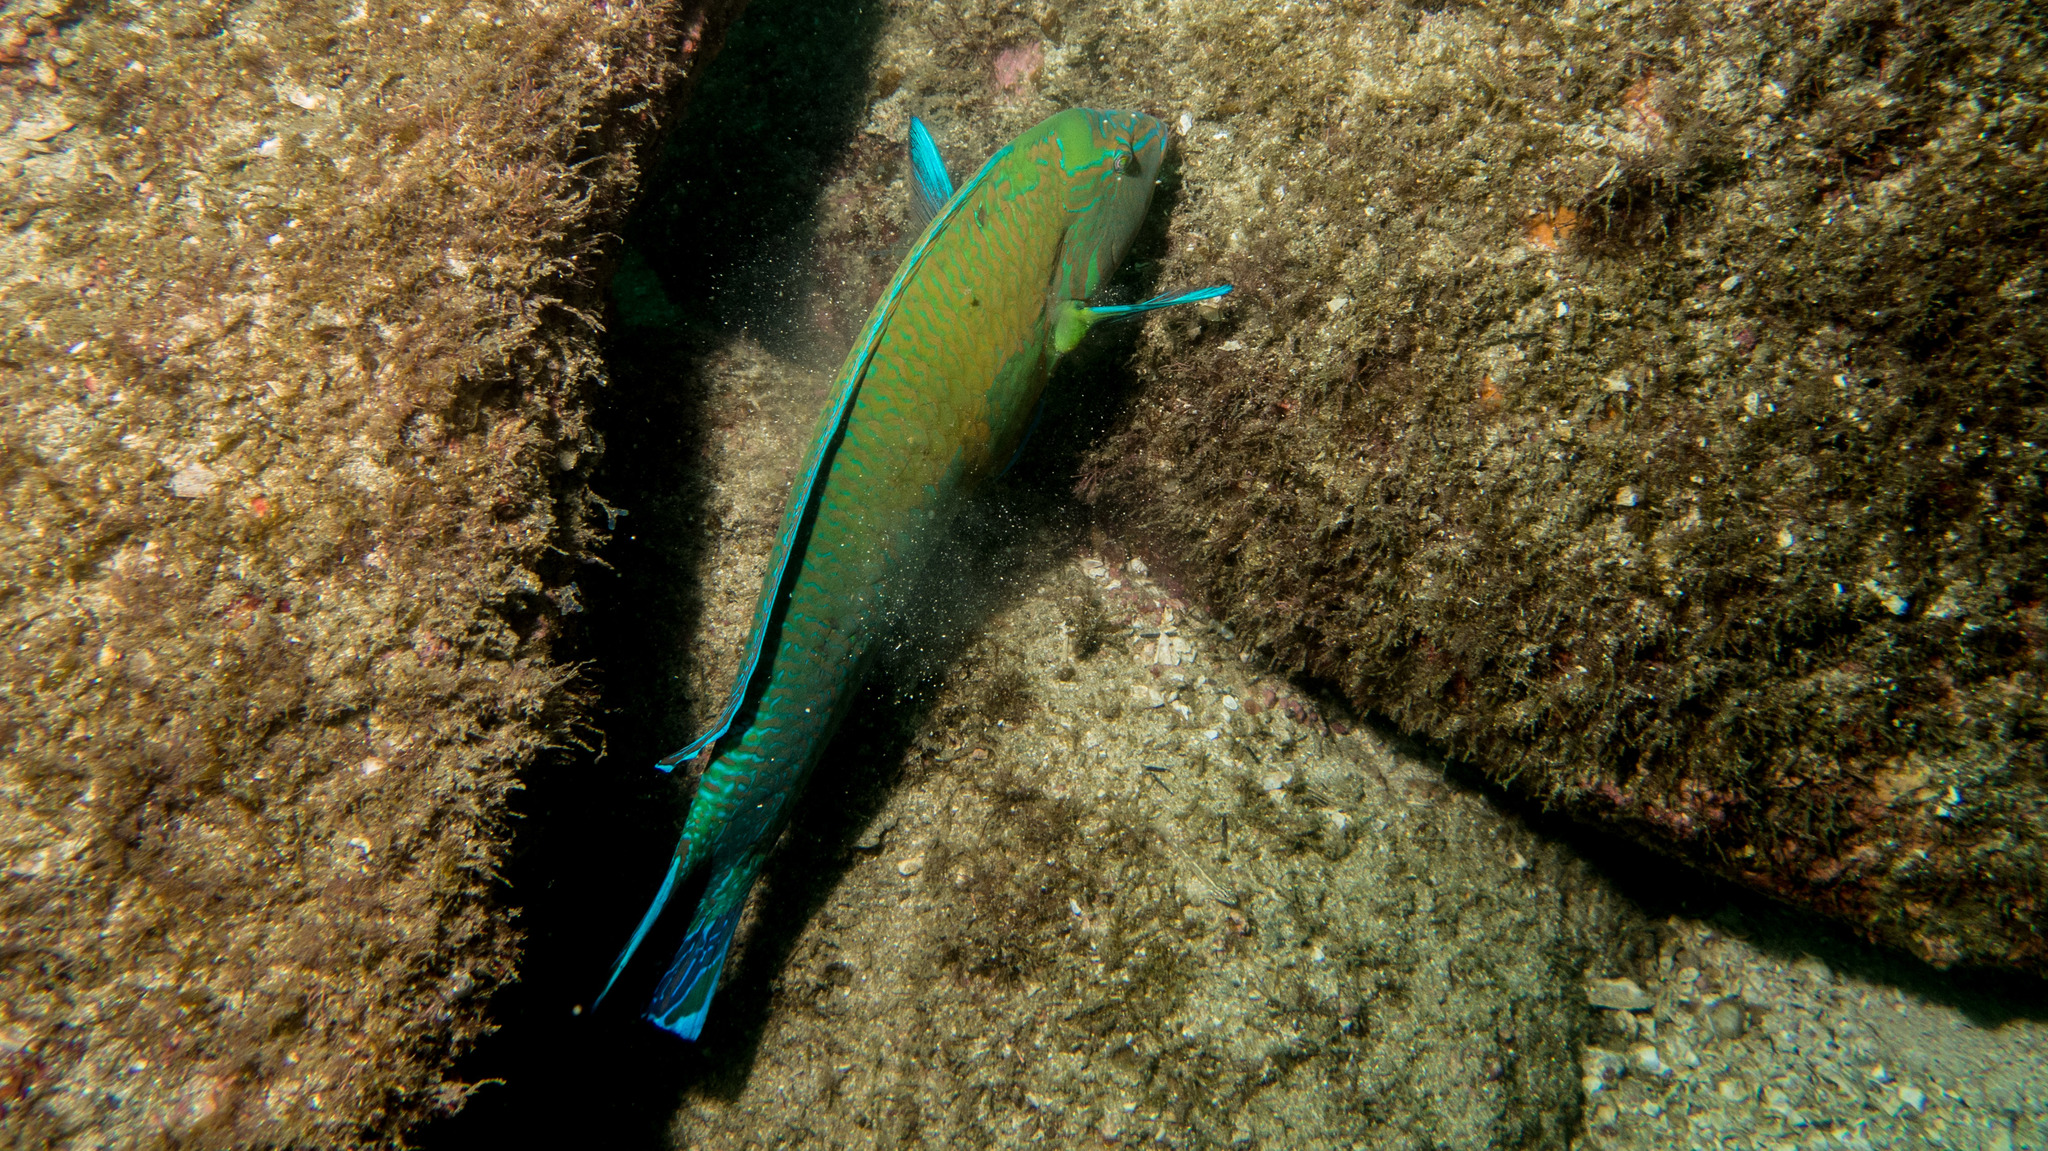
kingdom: Animalia
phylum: Chordata
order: Perciformes
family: Labridae
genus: Halichoeres
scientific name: Halichoeres brasiliensis
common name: Brazilian wrasse
